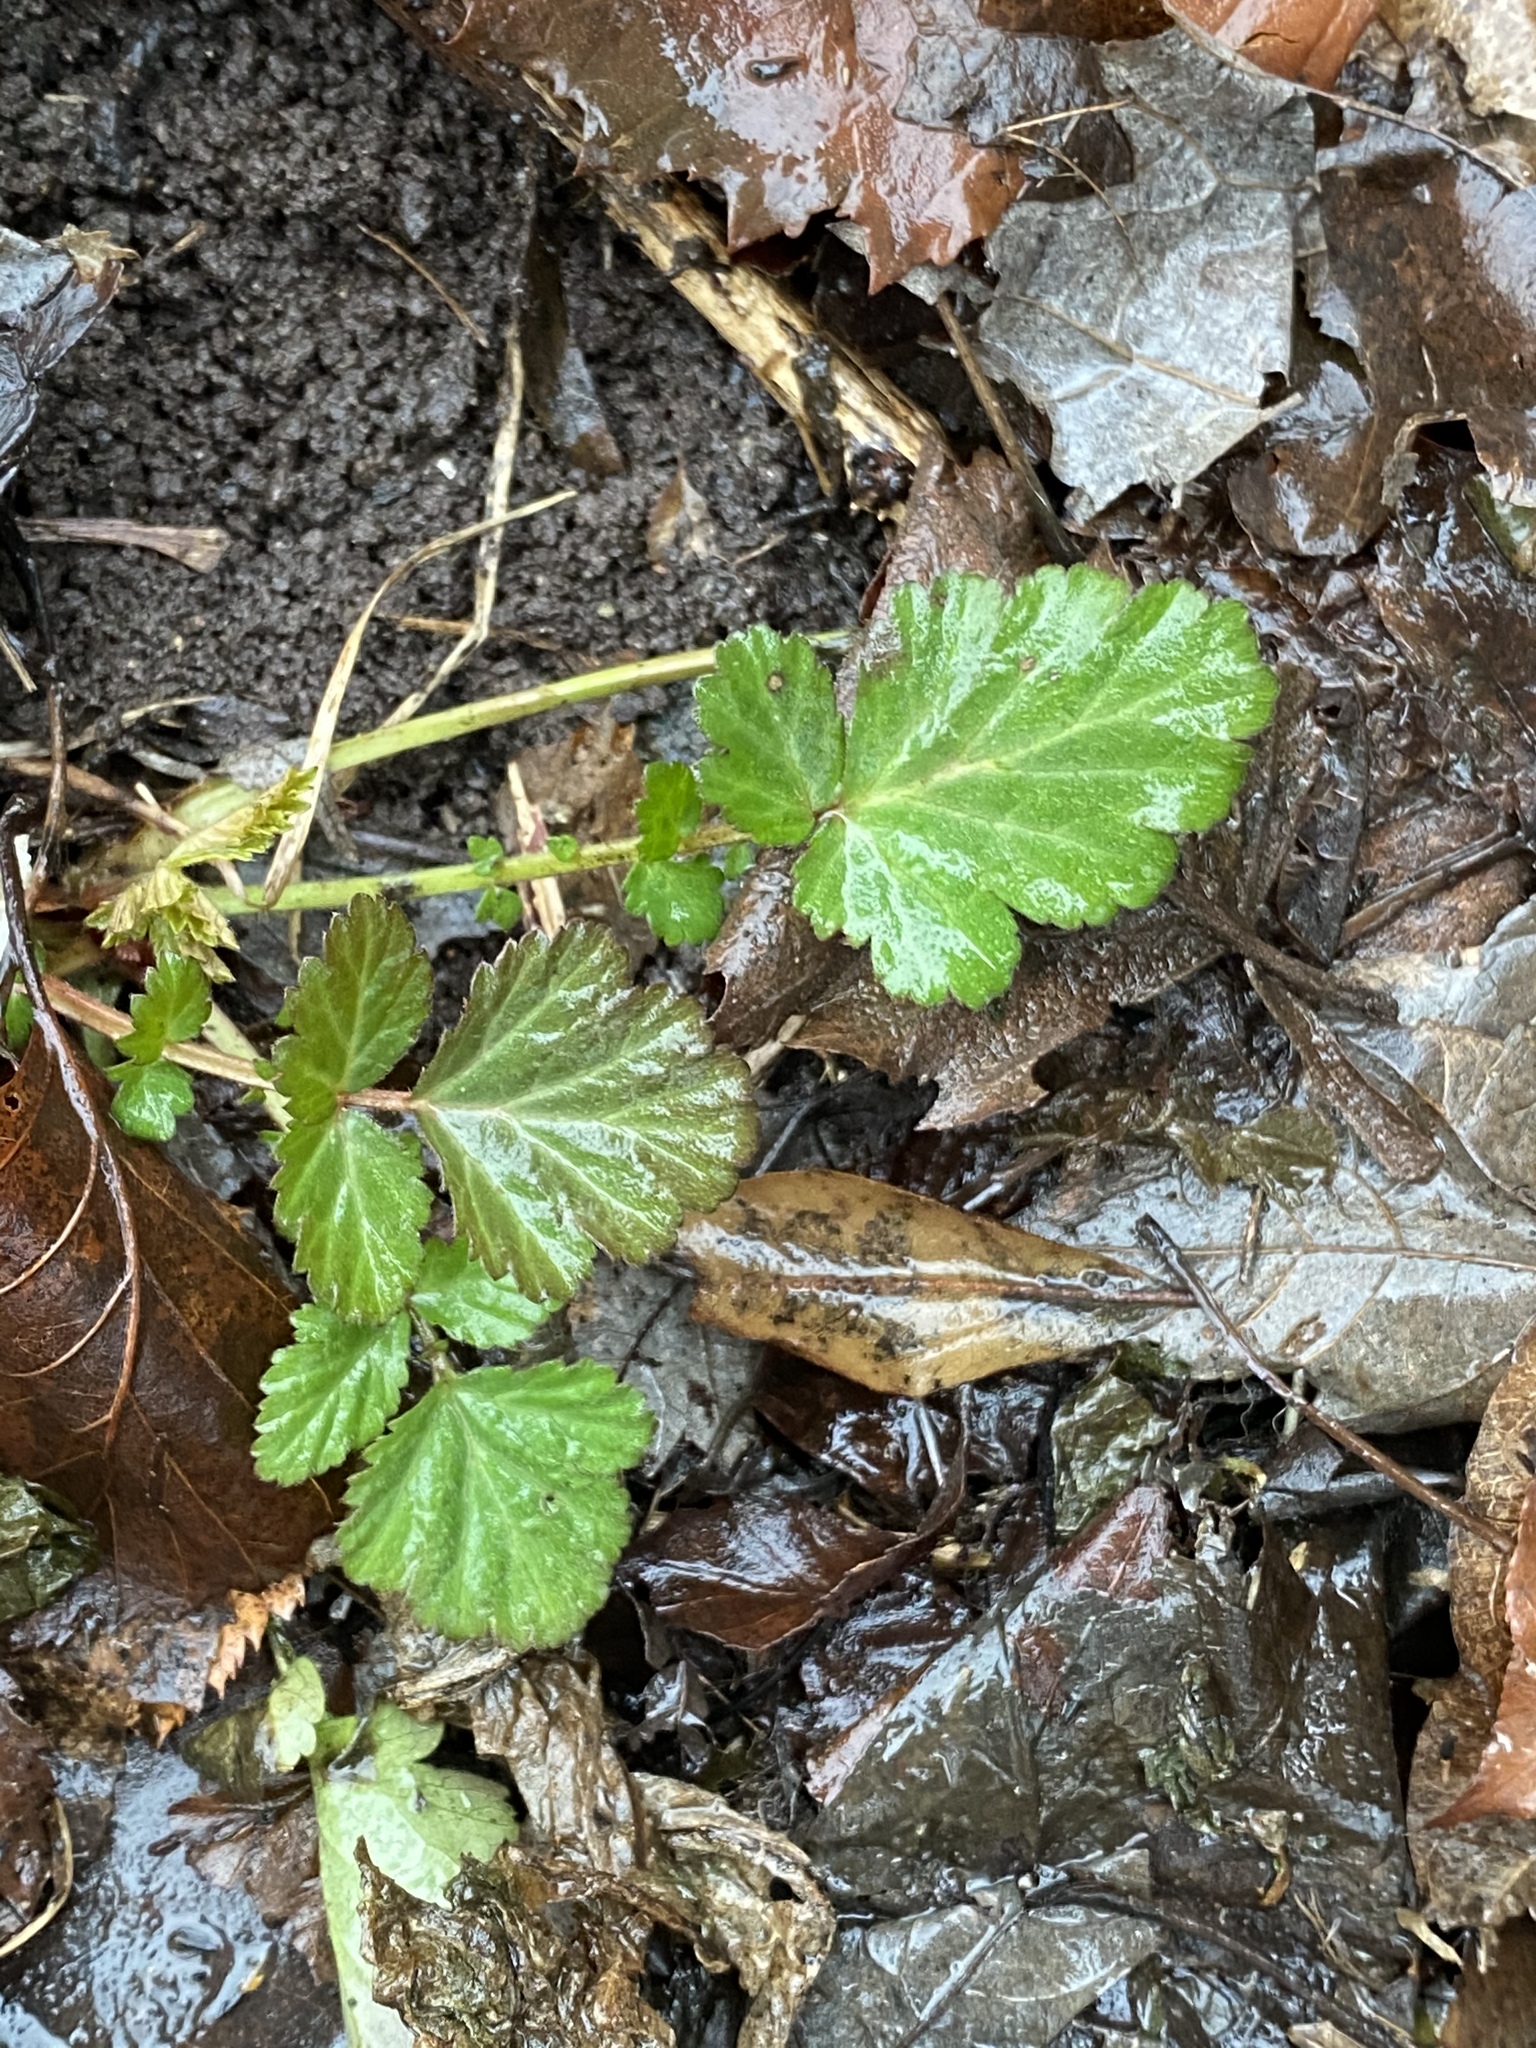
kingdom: Plantae
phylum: Tracheophyta
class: Magnoliopsida
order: Rosales
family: Rosaceae
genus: Geum
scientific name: Geum canadense
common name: White avens
